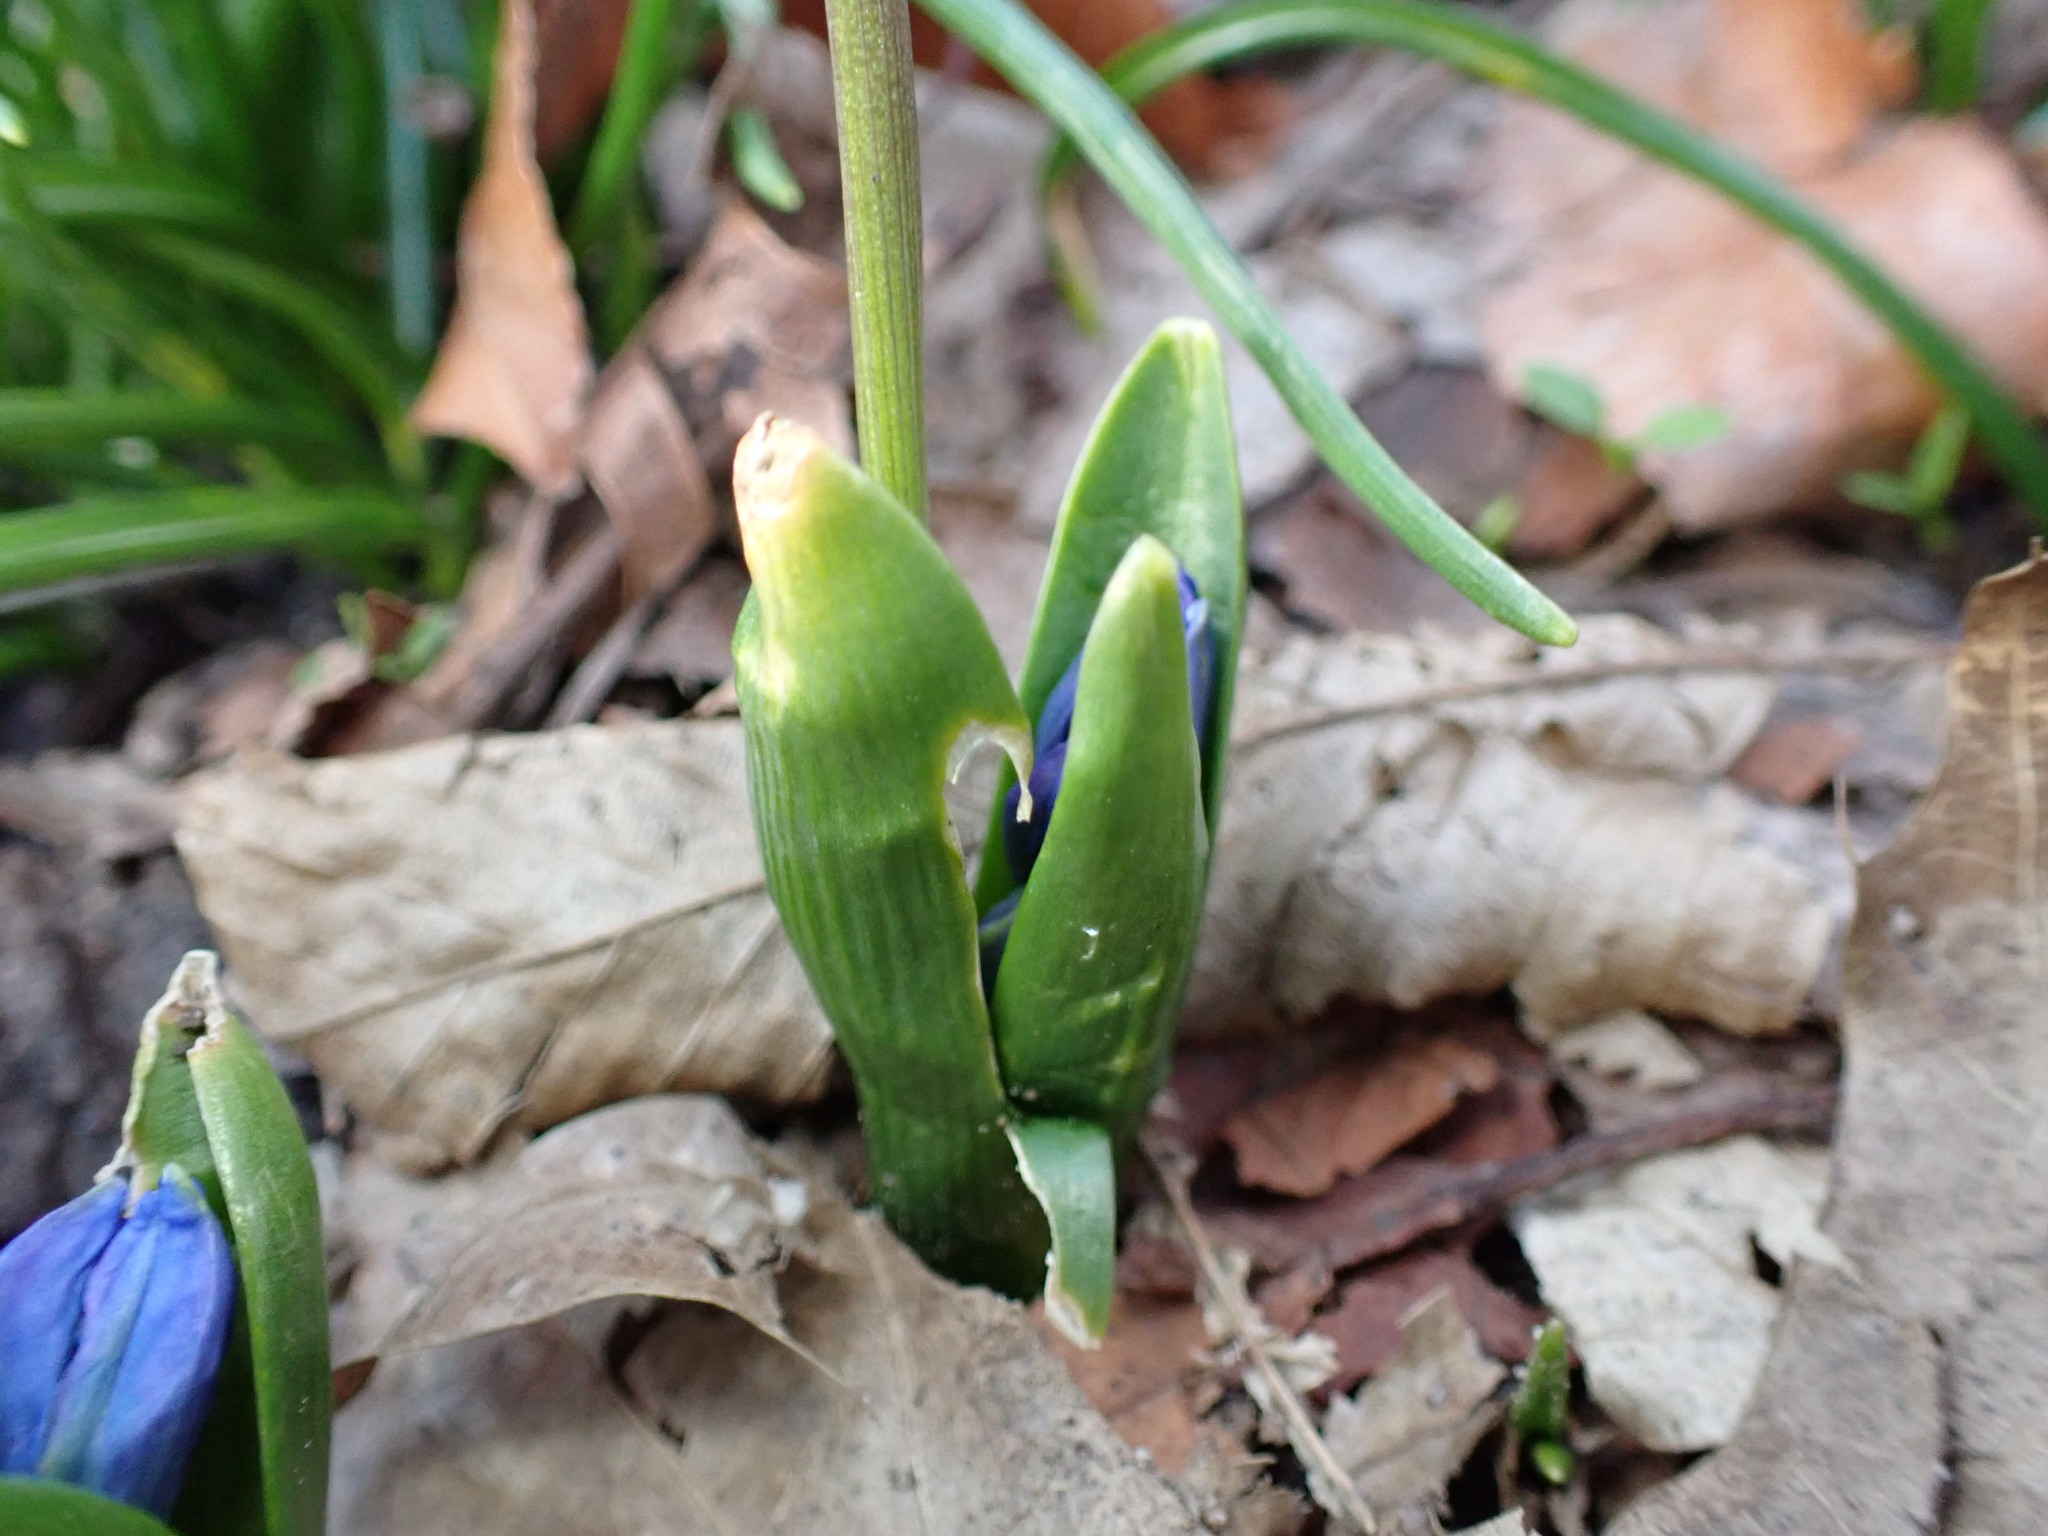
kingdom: Plantae
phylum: Tracheophyta
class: Liliopsida
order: Asparagales
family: Asparagaceae
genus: Scilla
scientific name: Scilla siberica
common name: Siberian squill
